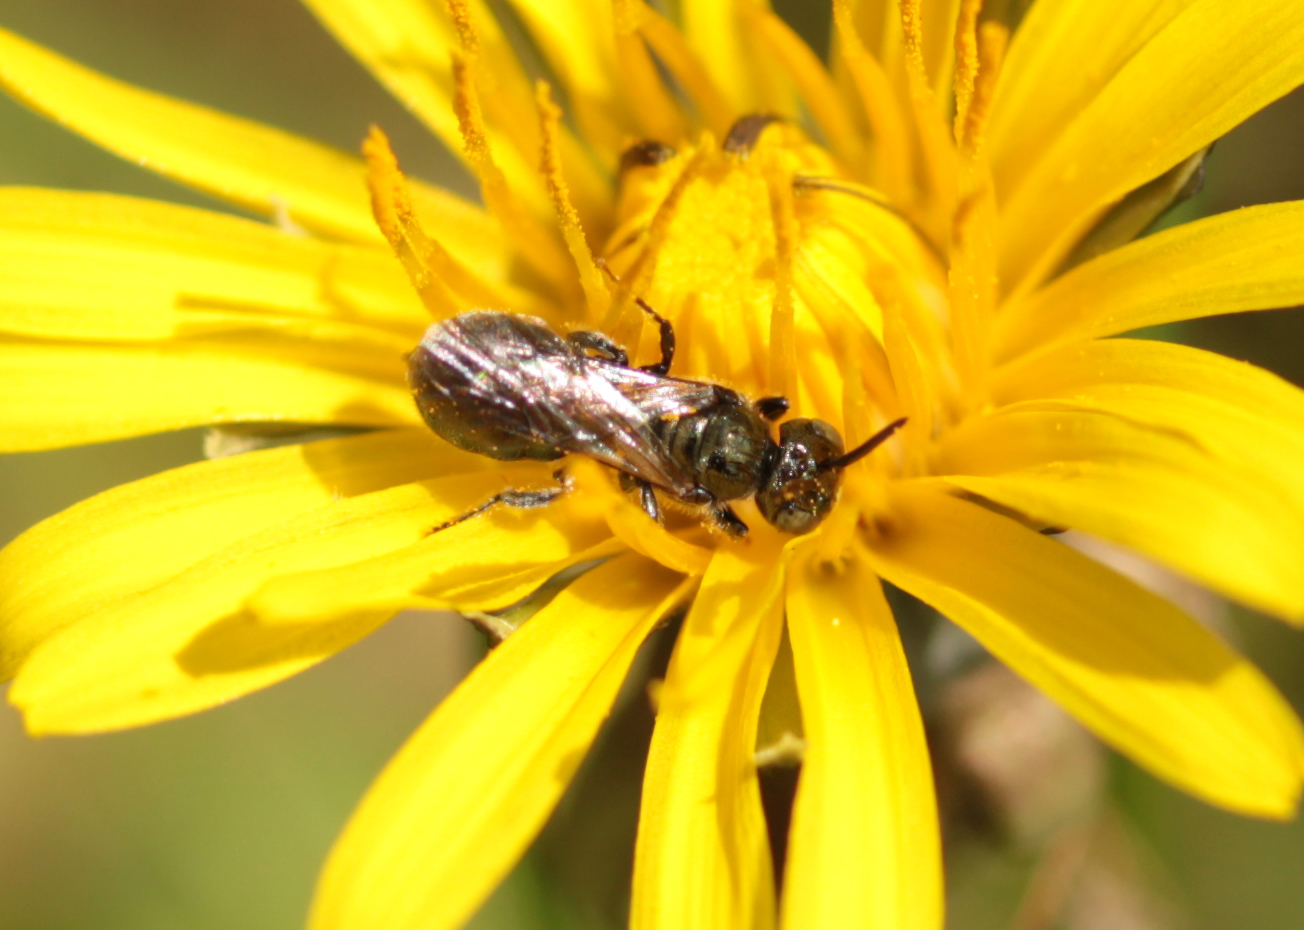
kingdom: Animalia
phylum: Arthropoda
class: Insecta
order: Hymenoptera
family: Apidae
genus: Ceratina
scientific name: Ceratina calcarata
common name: Spurred carpenter bee
